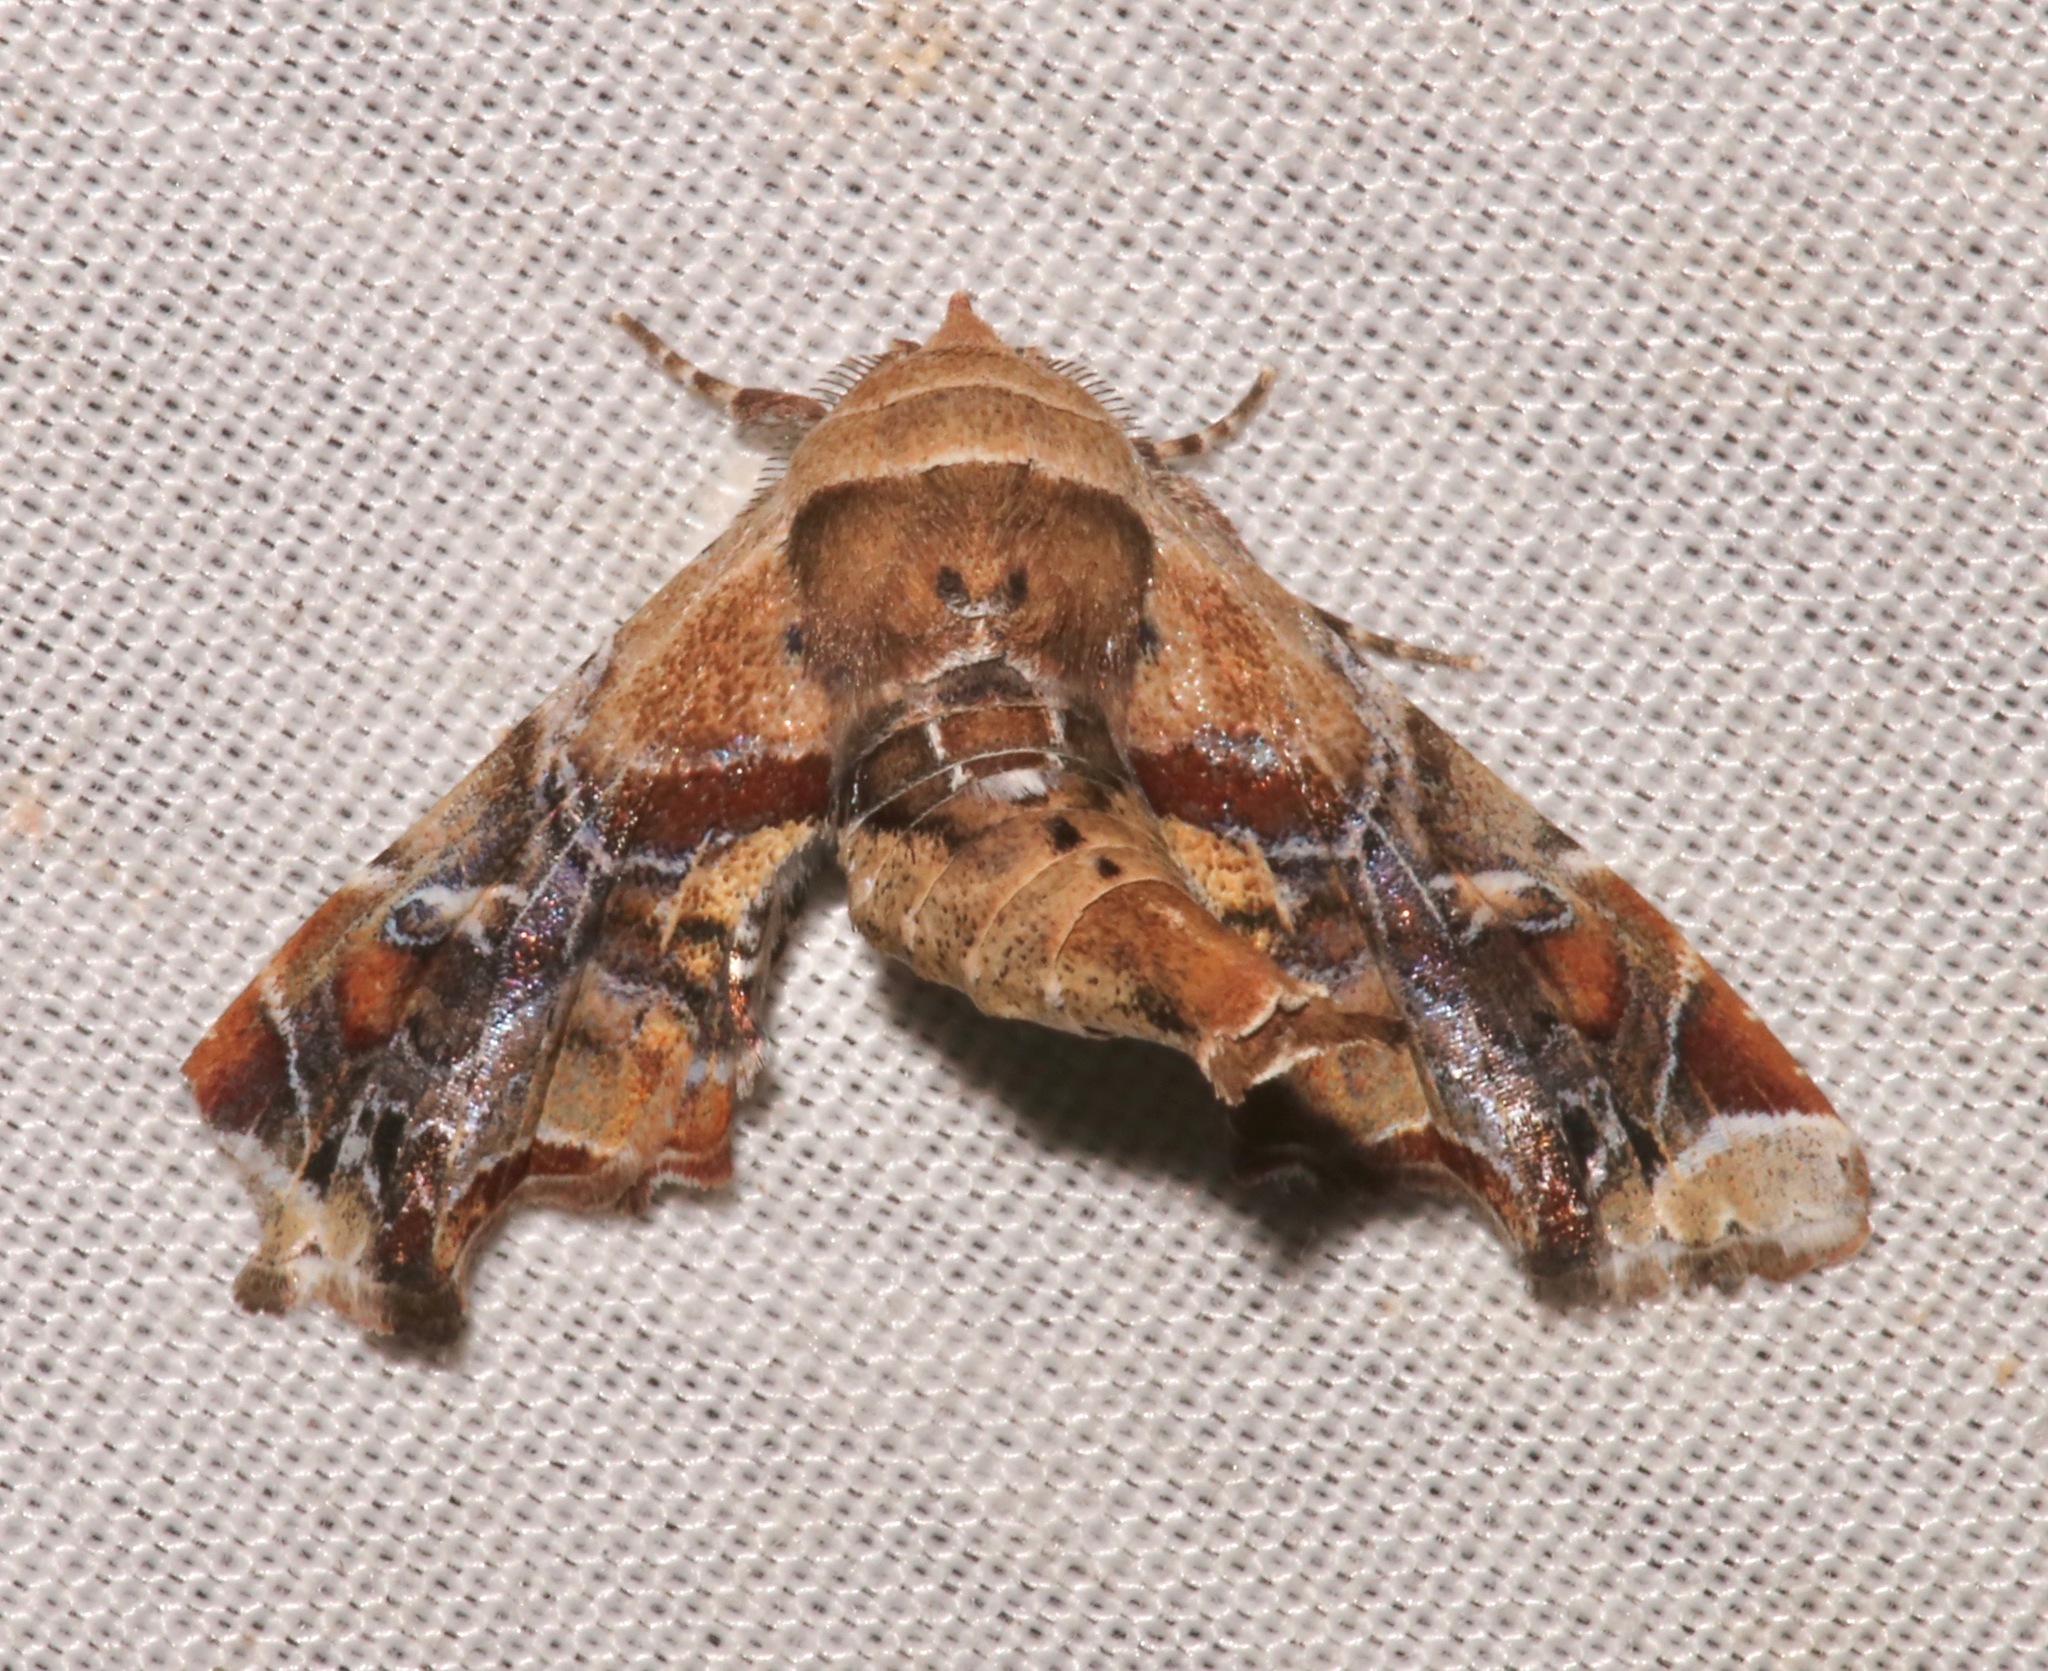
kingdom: Animalia
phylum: Arthropoda
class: Insecta
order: Lepidoptera
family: Euteliidae
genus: Eutelia
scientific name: Eutelia furcata
